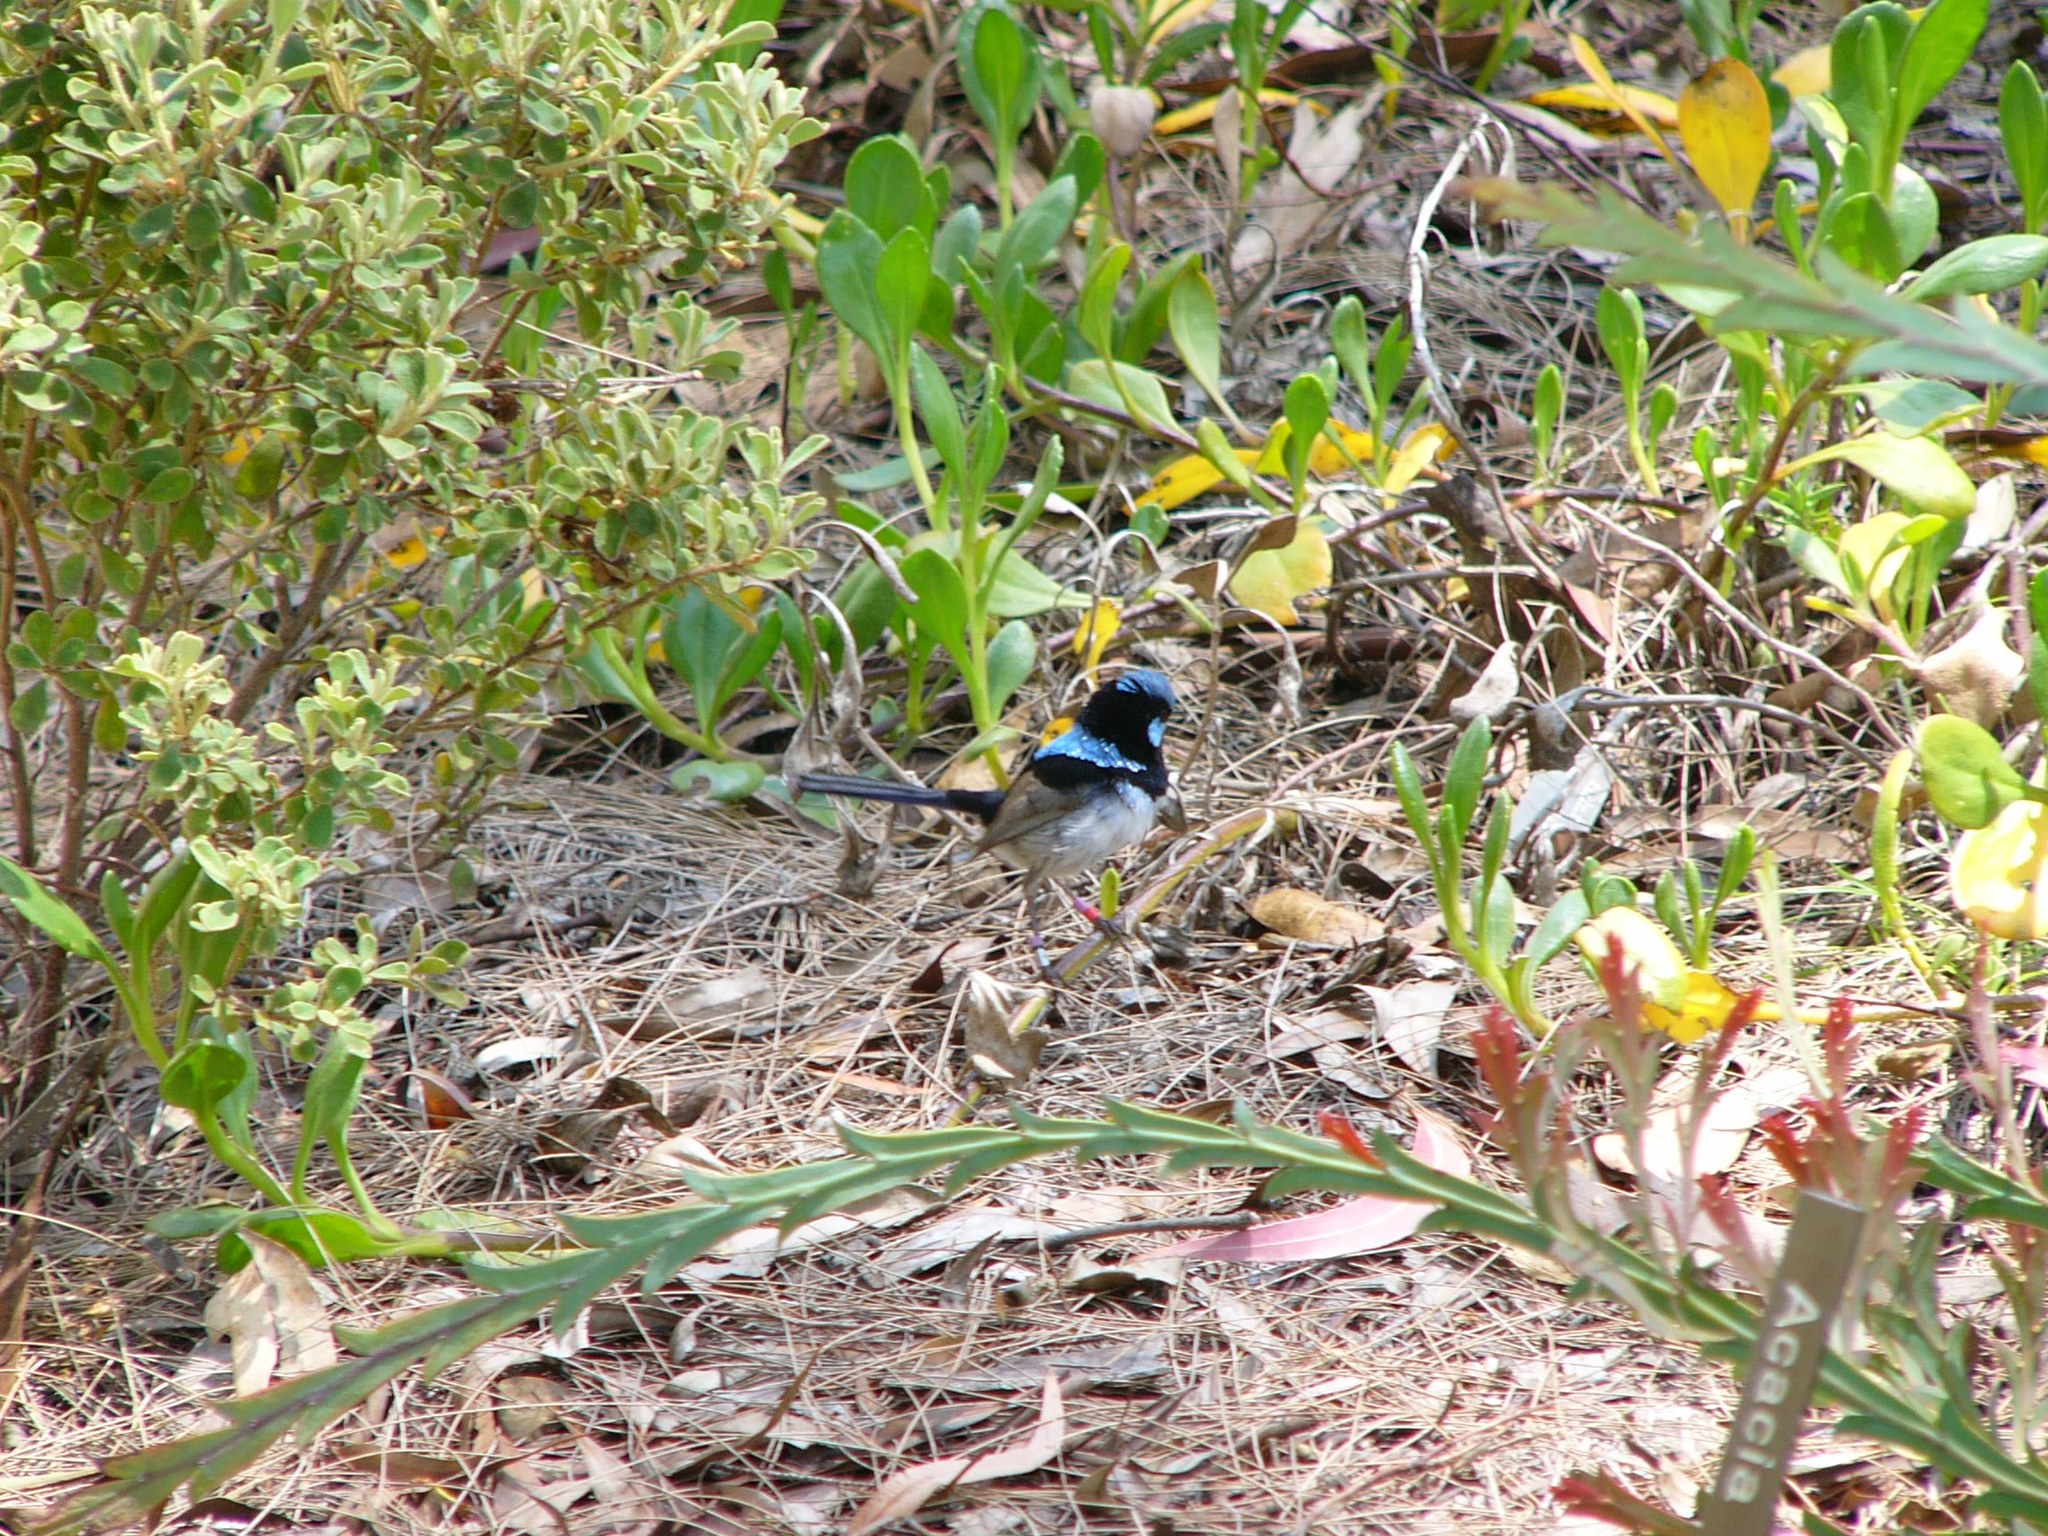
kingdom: Animalia
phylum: Chordata
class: Aves
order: Passeriformes
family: Maluridae
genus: Malurus
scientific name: Malurus cyaneus
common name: Superb fairywren
